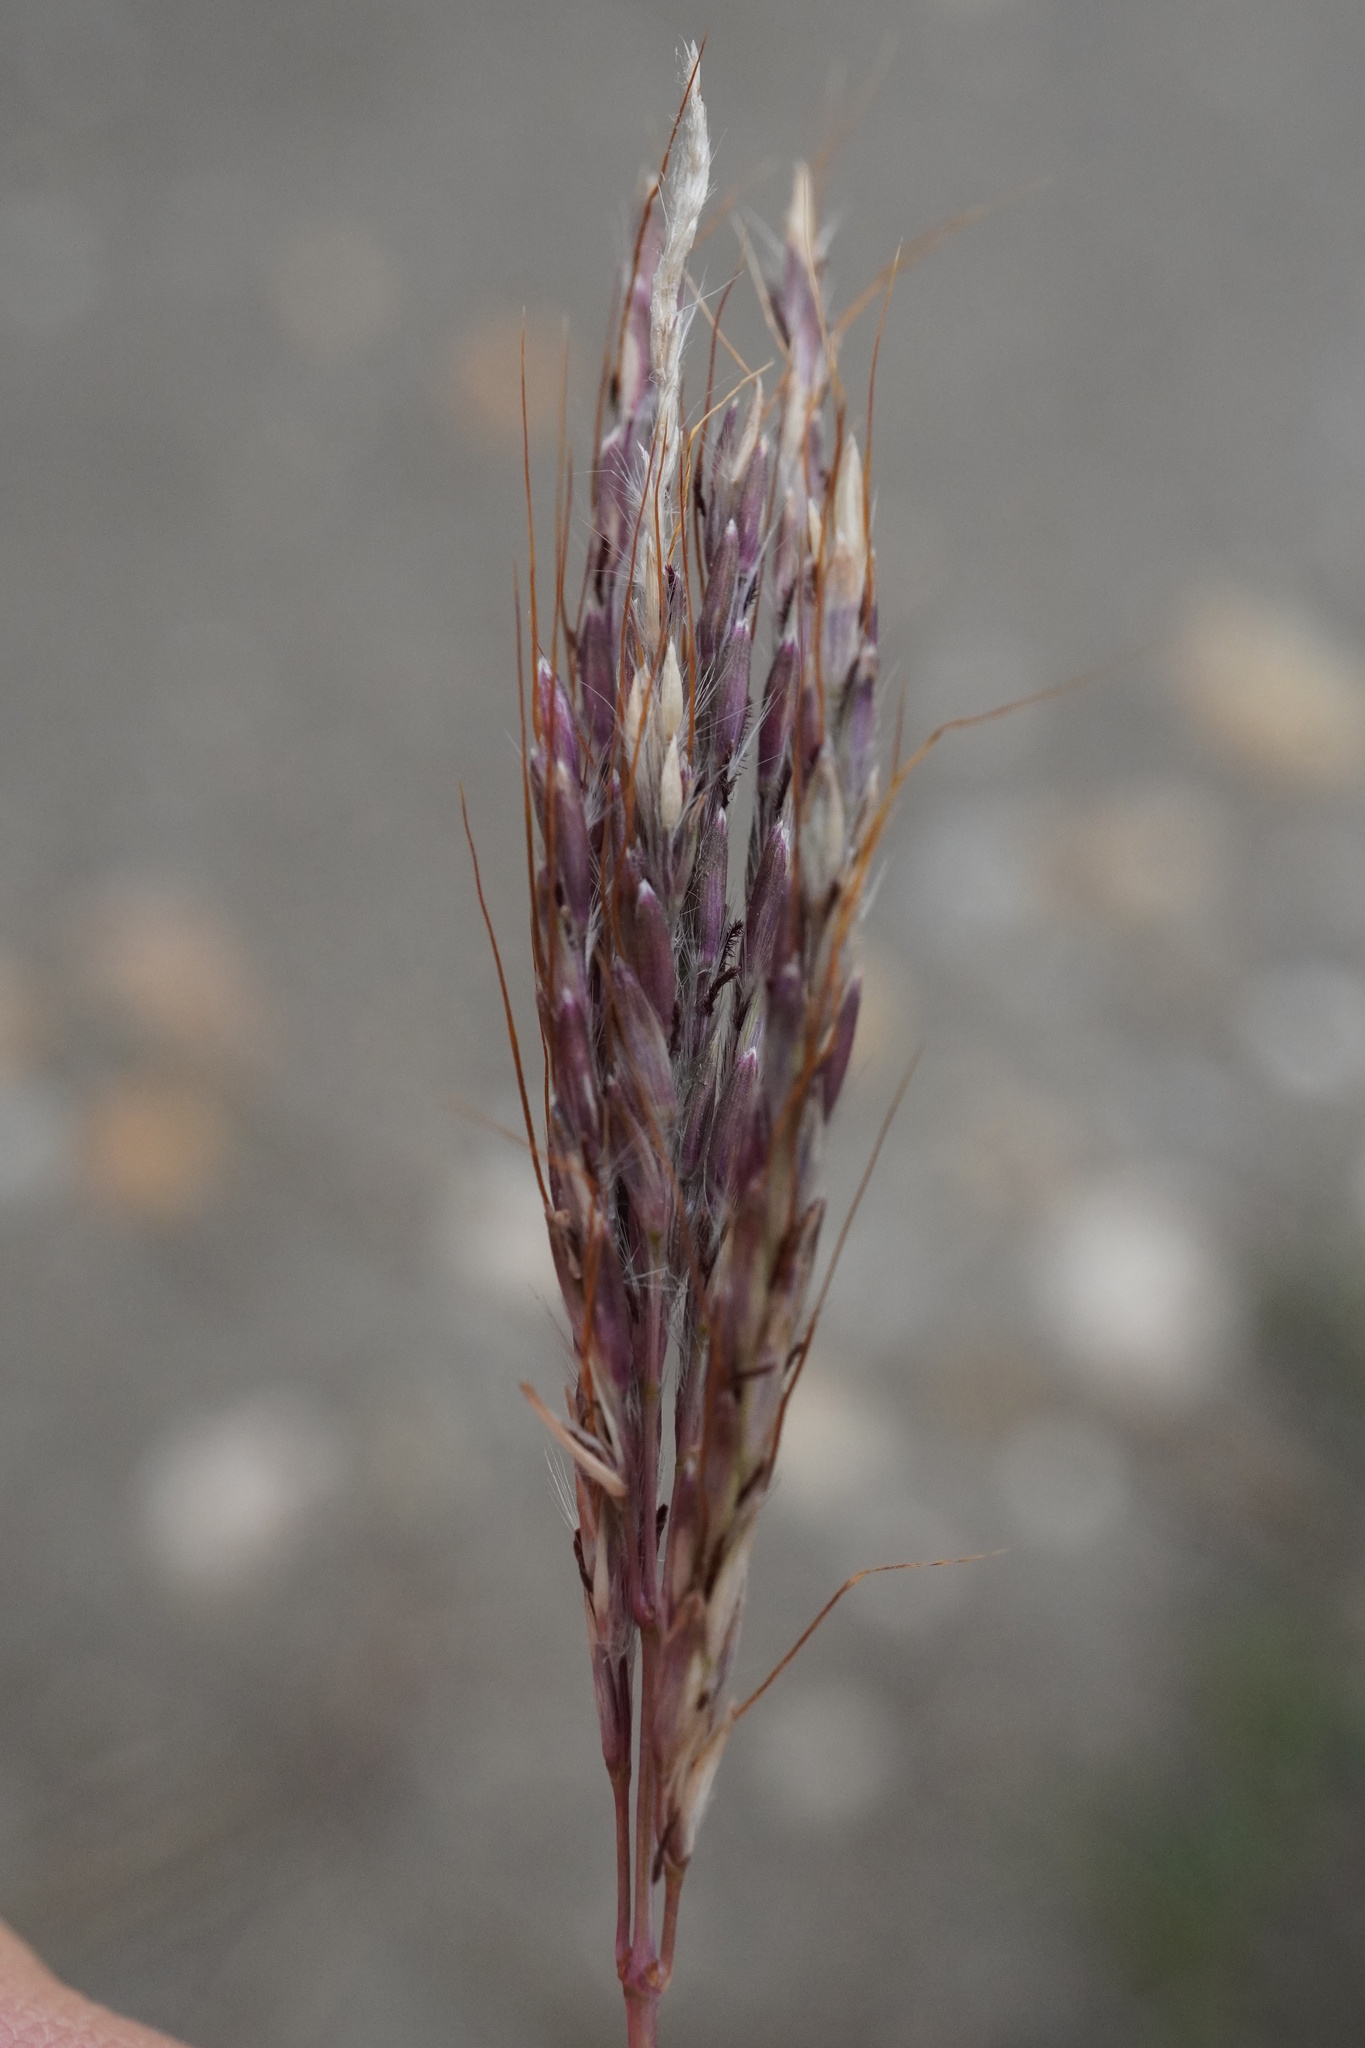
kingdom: Plantae
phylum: Tracheophyta
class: Liliopsida
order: Poales
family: Poaceae
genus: Bothriochloa
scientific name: Bothriochloa ischaemum
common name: Yellow bluestem
